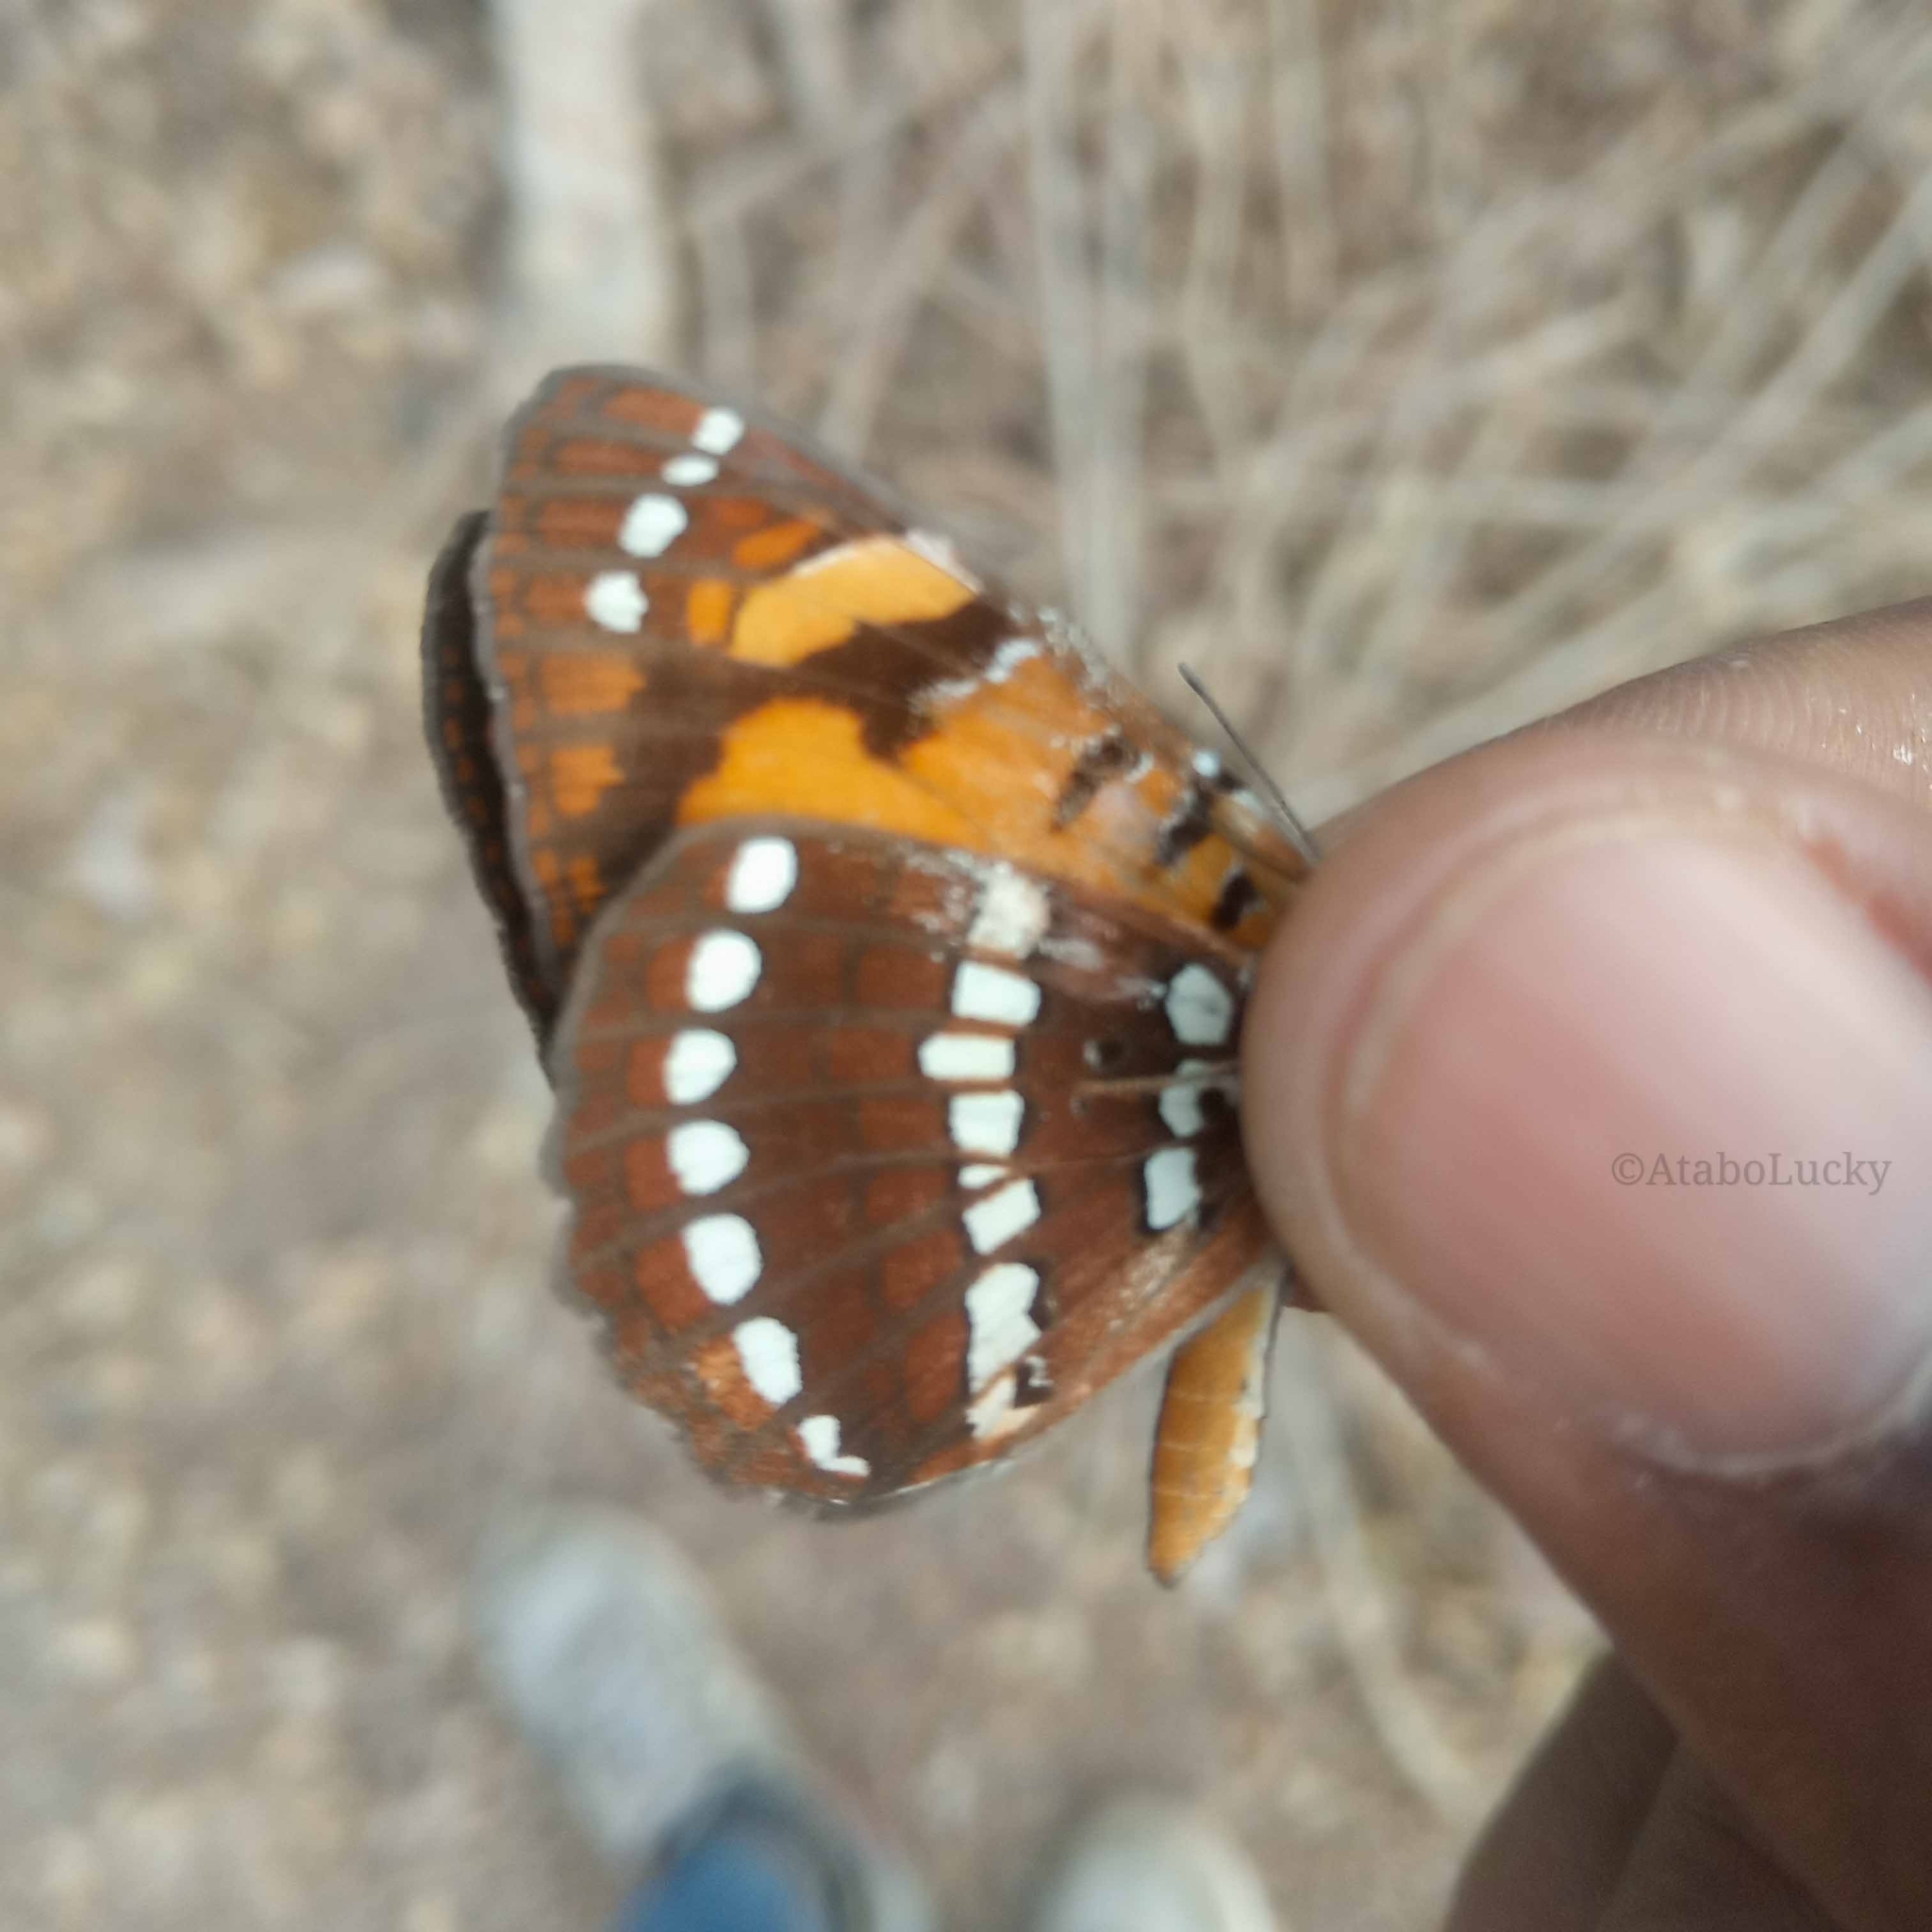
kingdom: Animalia
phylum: Arthropoda
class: Insecta
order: Lepidoptera
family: Nymphalidae
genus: Byblia
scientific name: Byblia anvatara
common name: African joker
